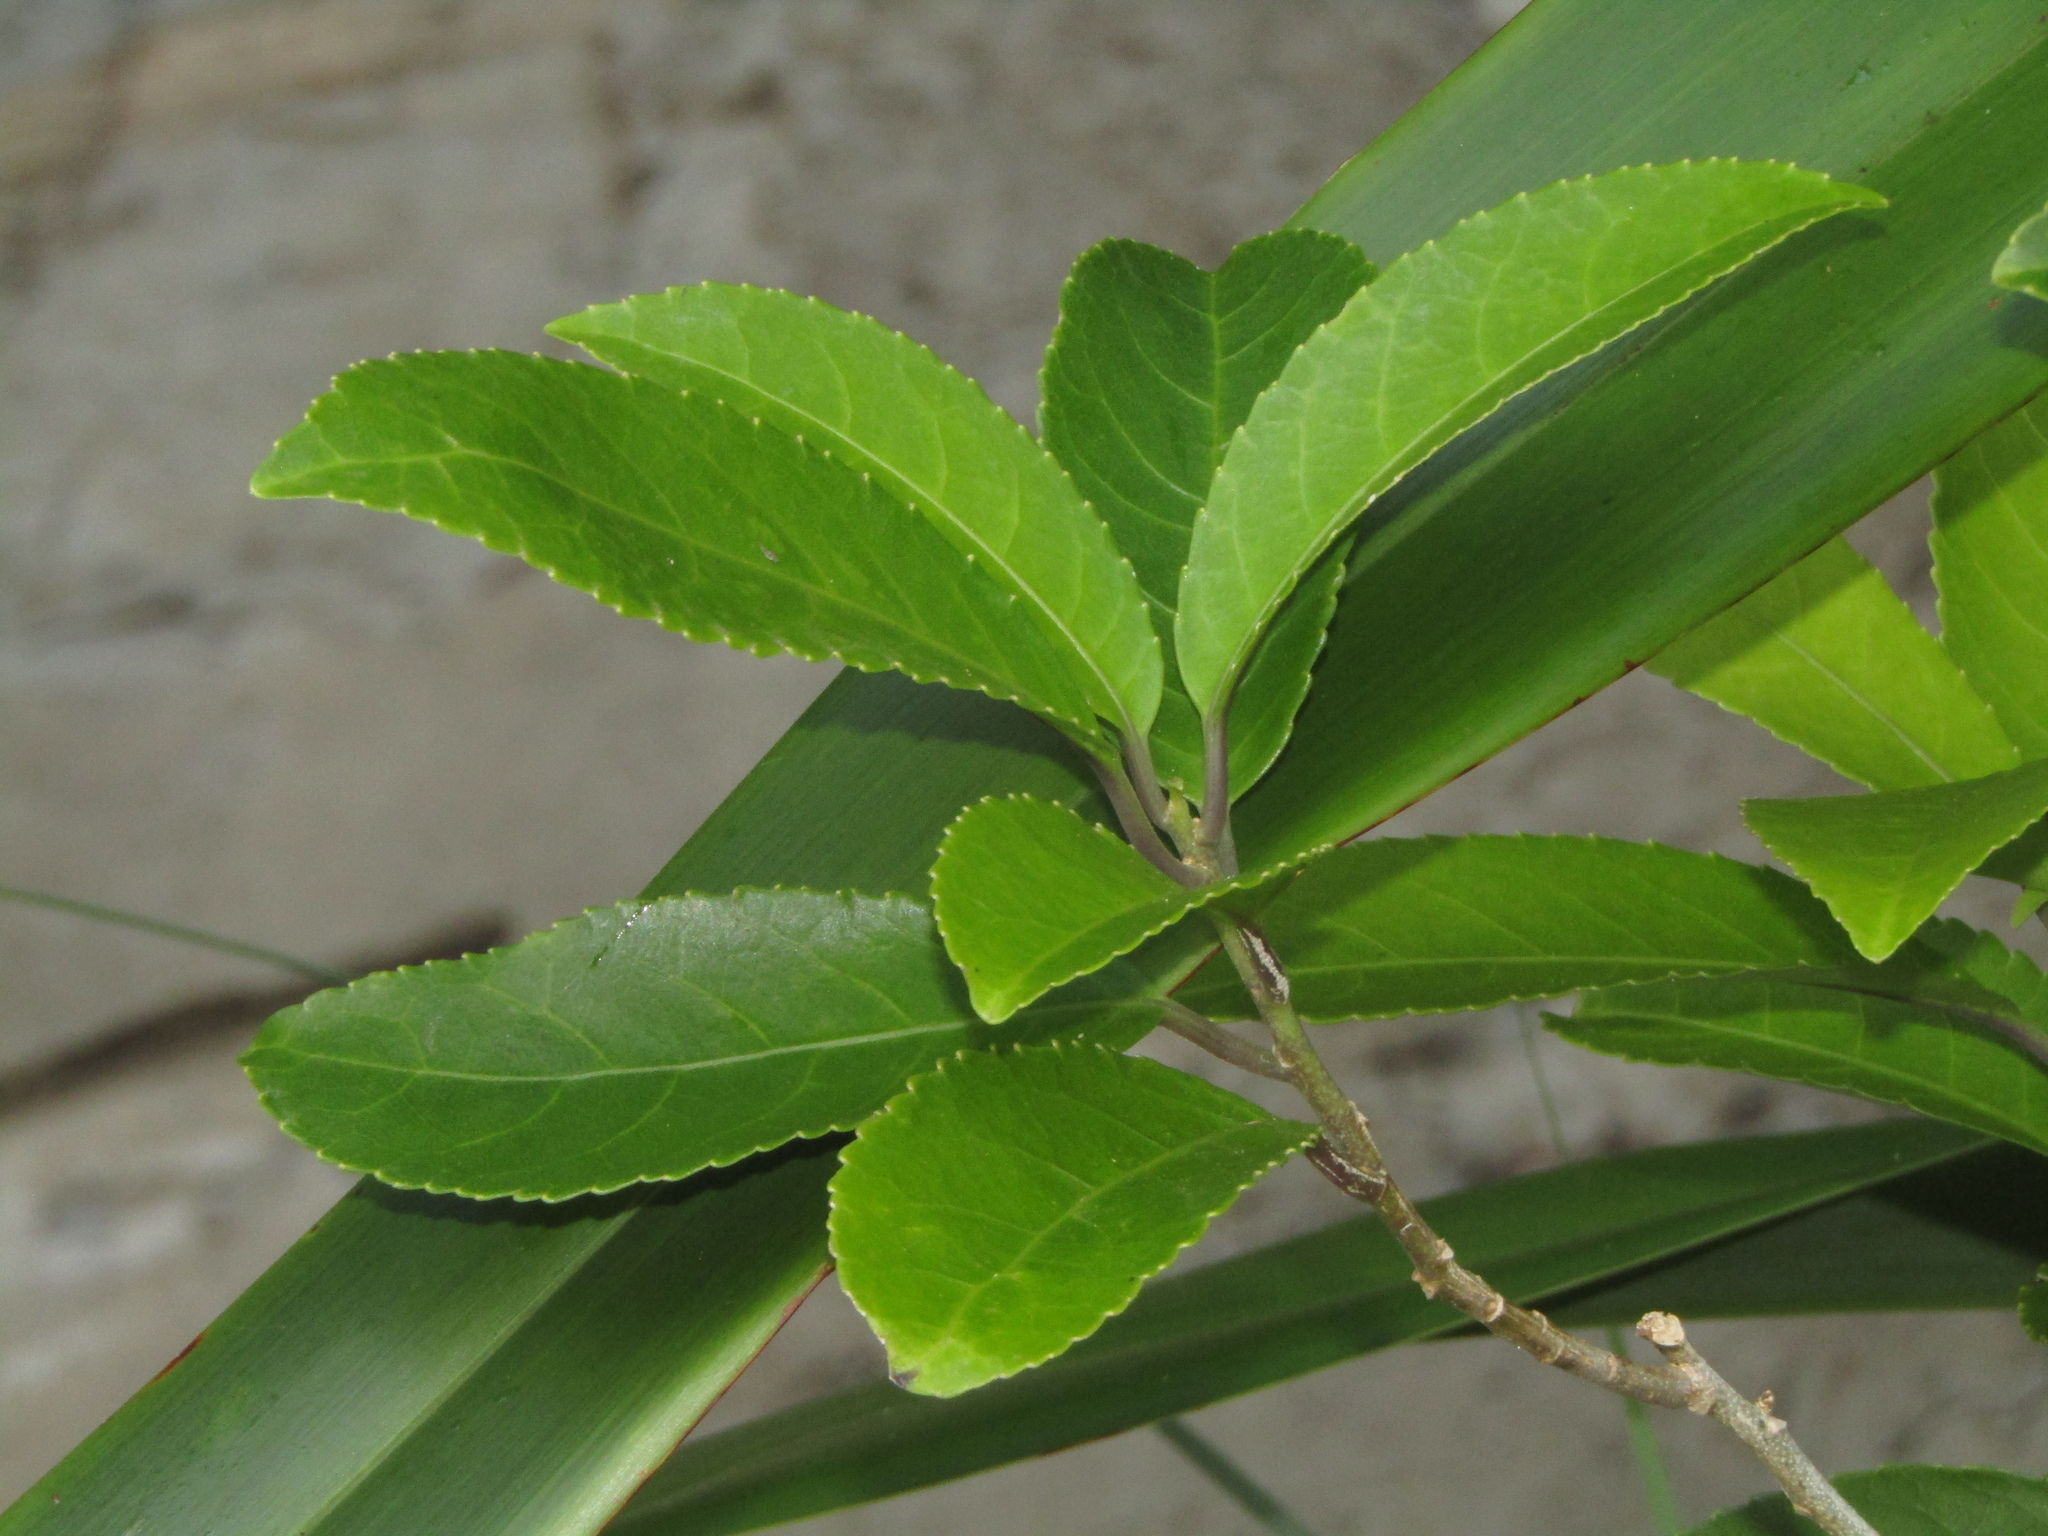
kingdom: Plantae
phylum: Tracheophyta
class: Magnoliopsida
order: Malpighiales
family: Violaceae
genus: Melicytus
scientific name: Melicytus ramiflorus
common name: Mahoe
